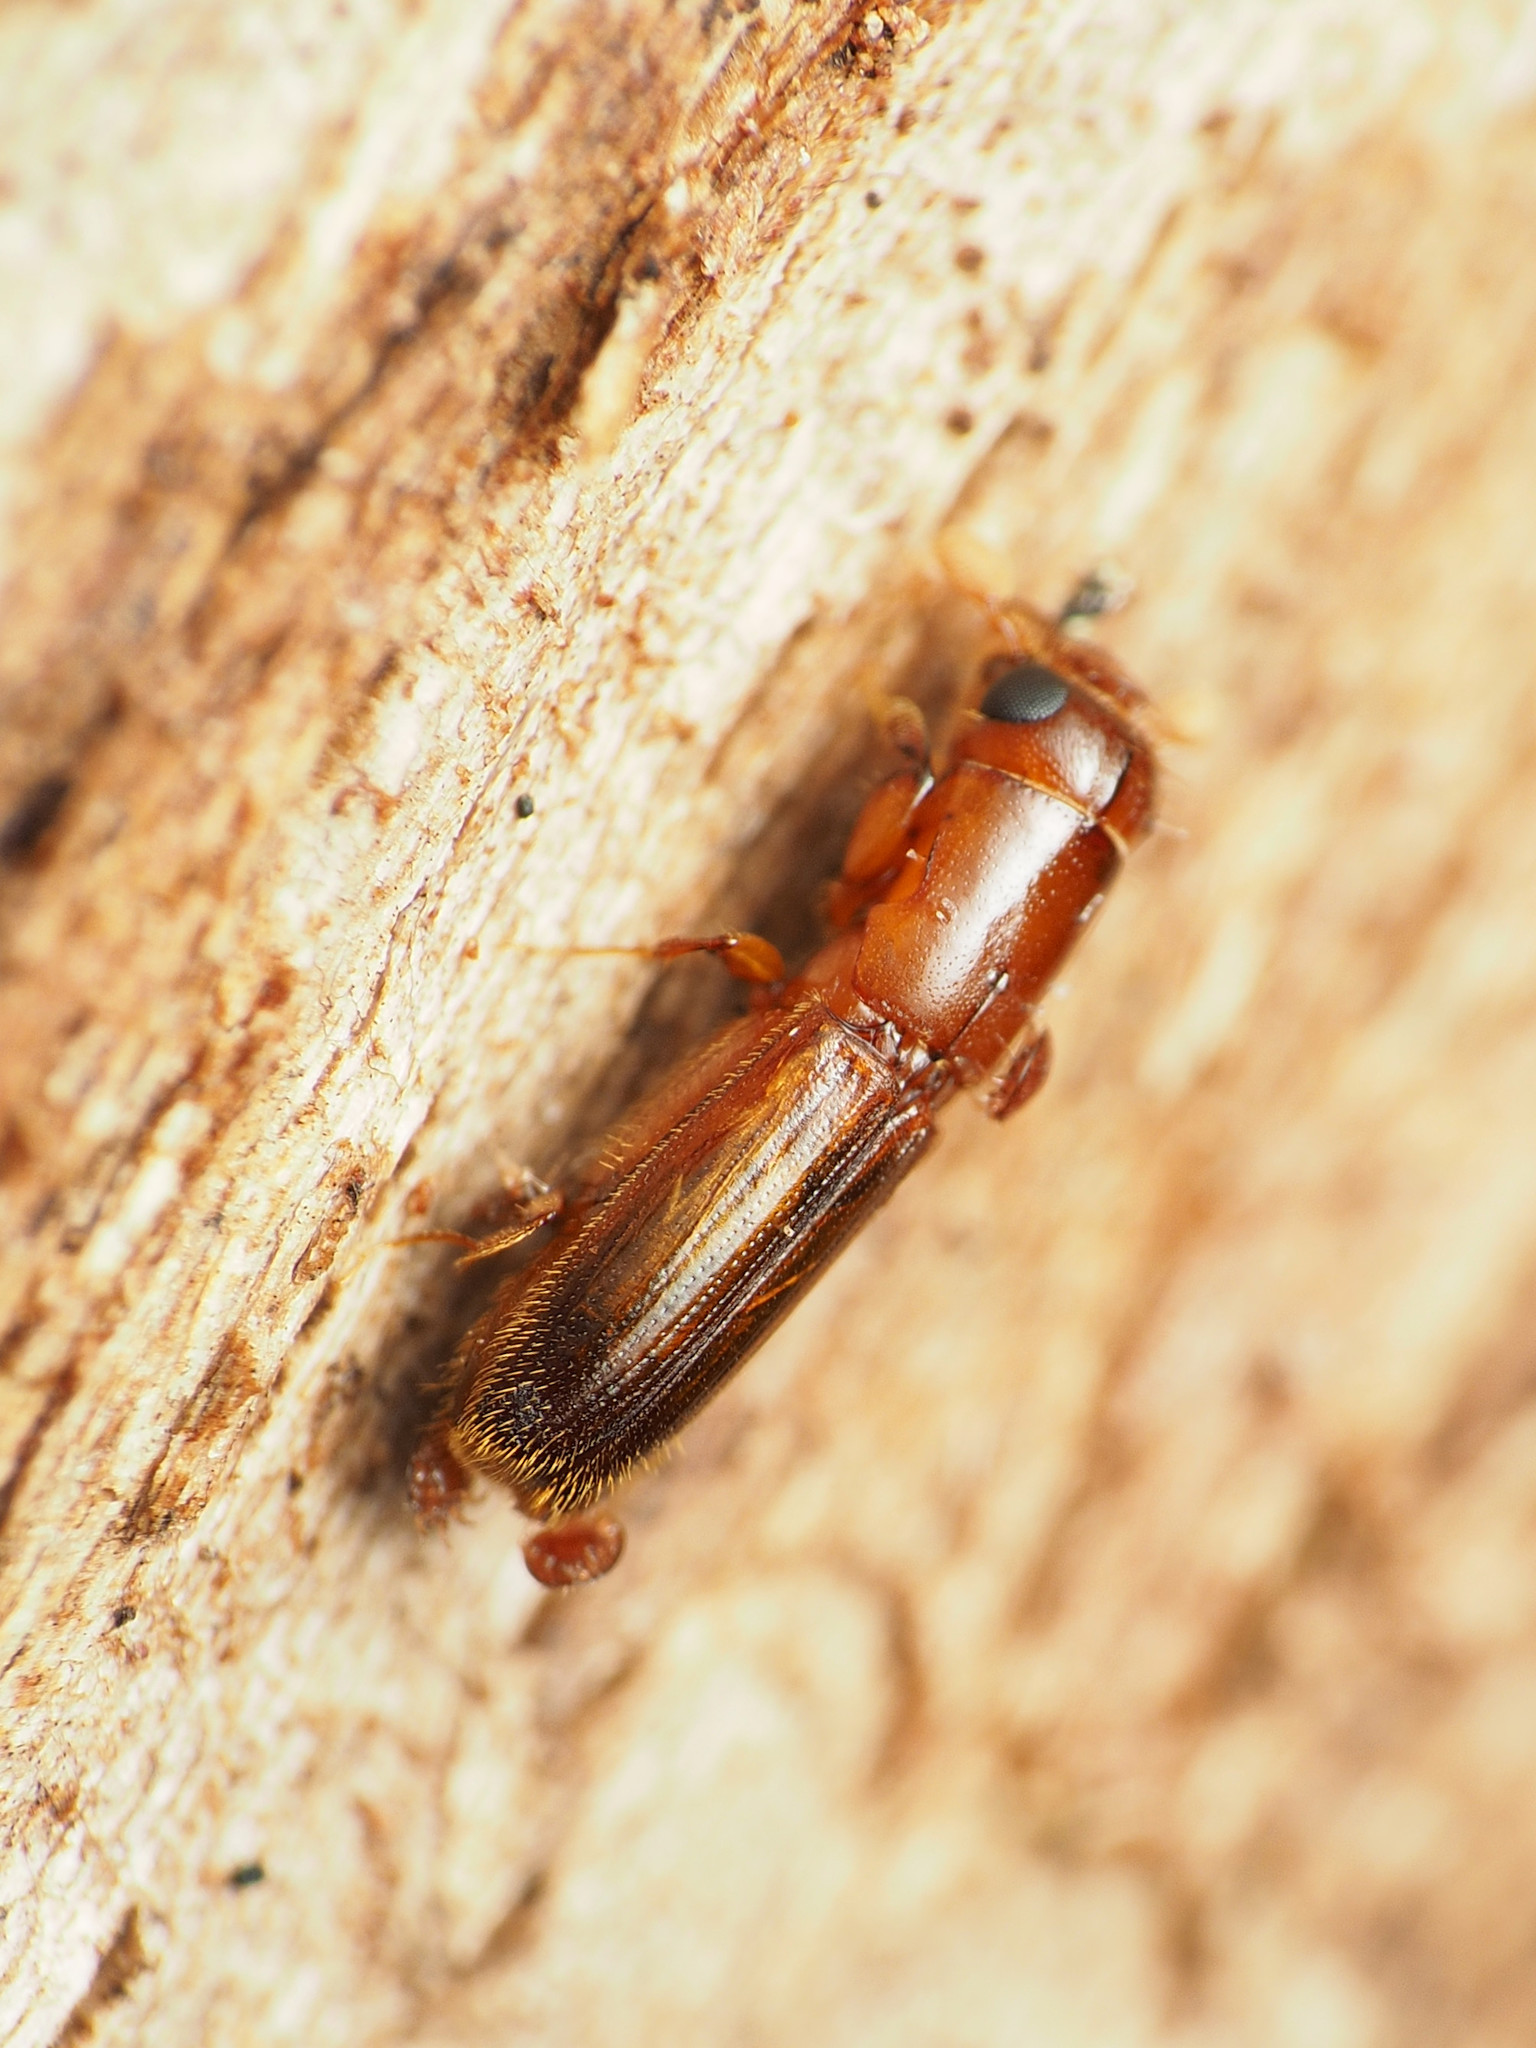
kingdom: Animalia
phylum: Arthropoda
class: Insecta
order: Coleoptera
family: Curculionidae
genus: Euplatypus
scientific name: Euplatypus compositus
